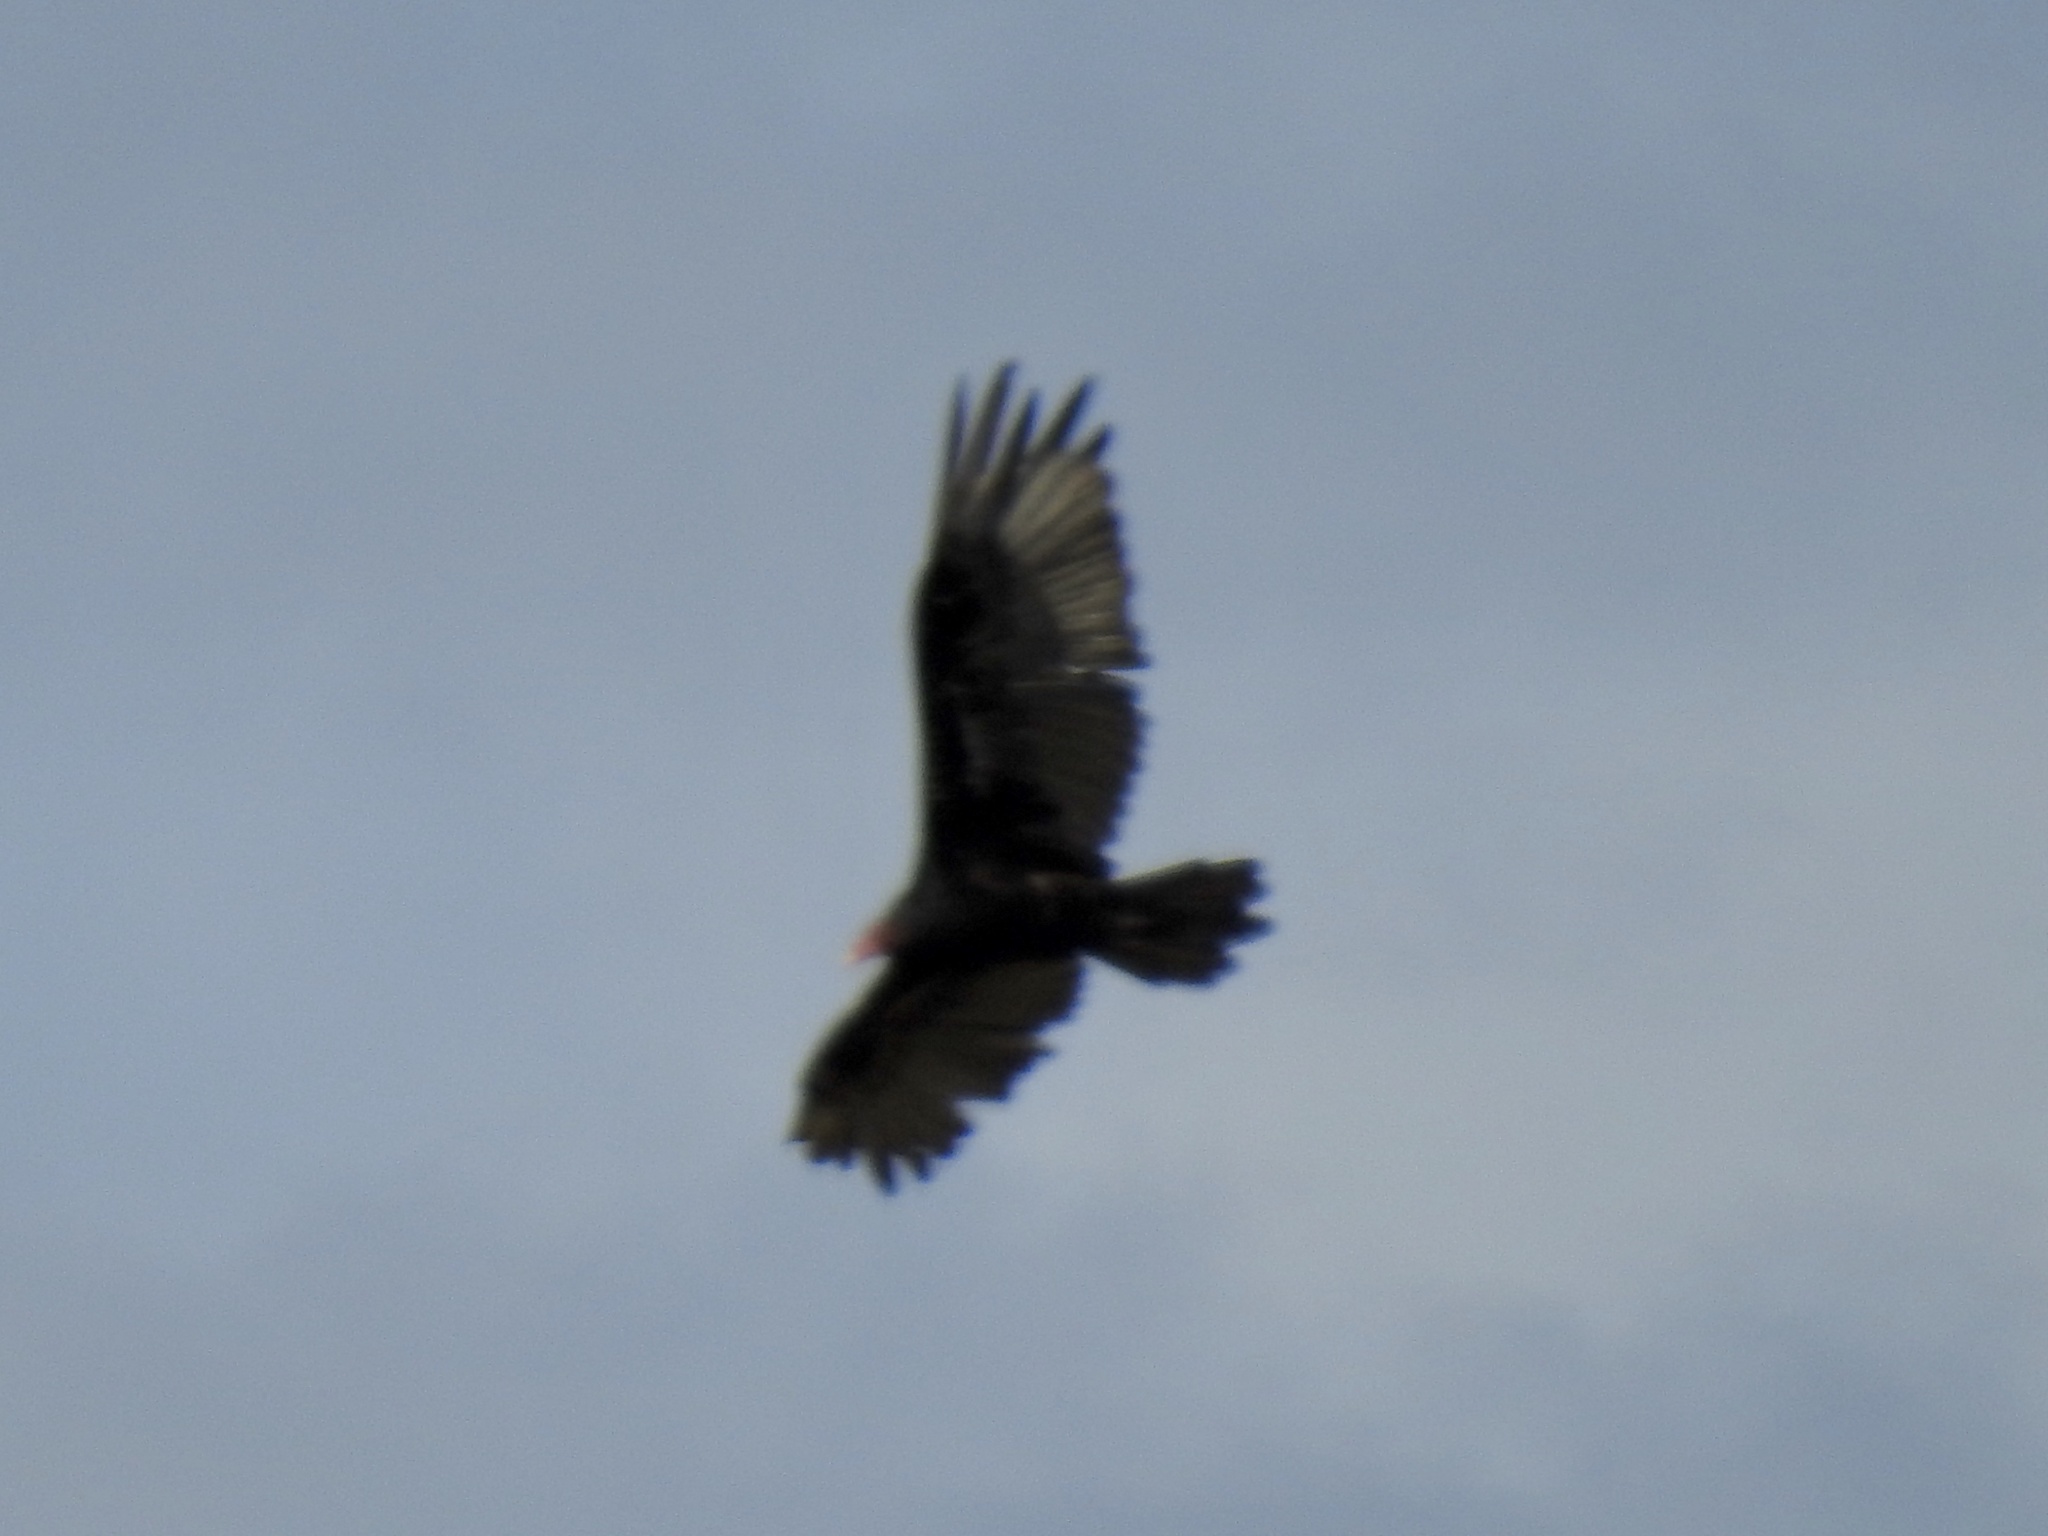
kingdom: Animalia
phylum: Chordata
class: Aves
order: Accipitriformes
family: Cathartidae
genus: Cathartes
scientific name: Cathartes aura
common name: Turkey vulture
